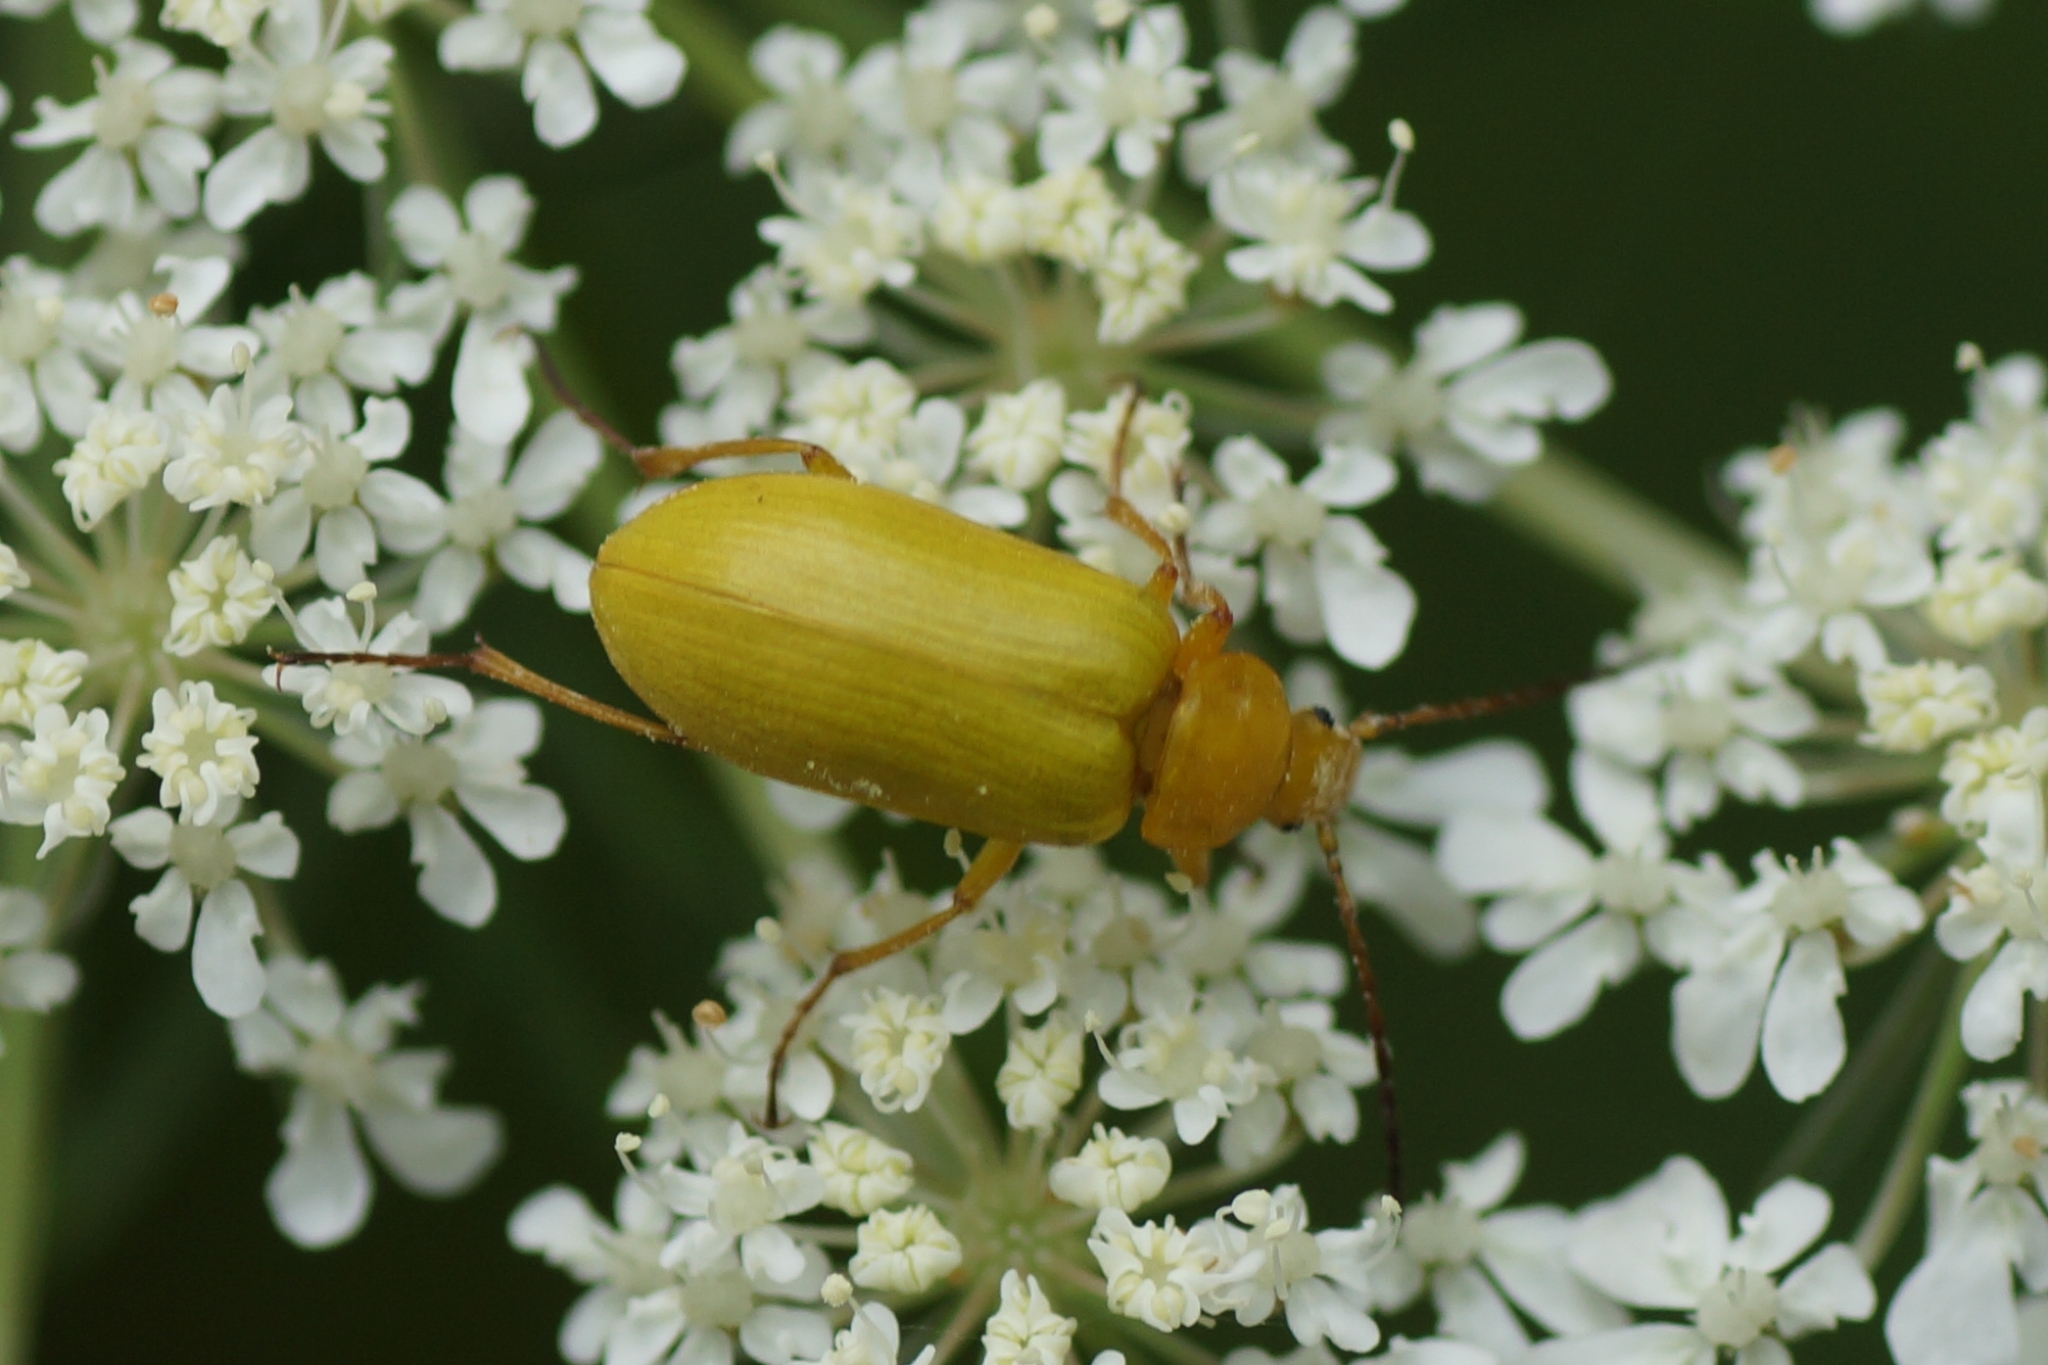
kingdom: Animalia
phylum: Arthropoda
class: Insecta
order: Coleoptera
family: Tenebrionidae
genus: Cteniopus
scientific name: Cteniopus sulphureus
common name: Sulphur beetle
